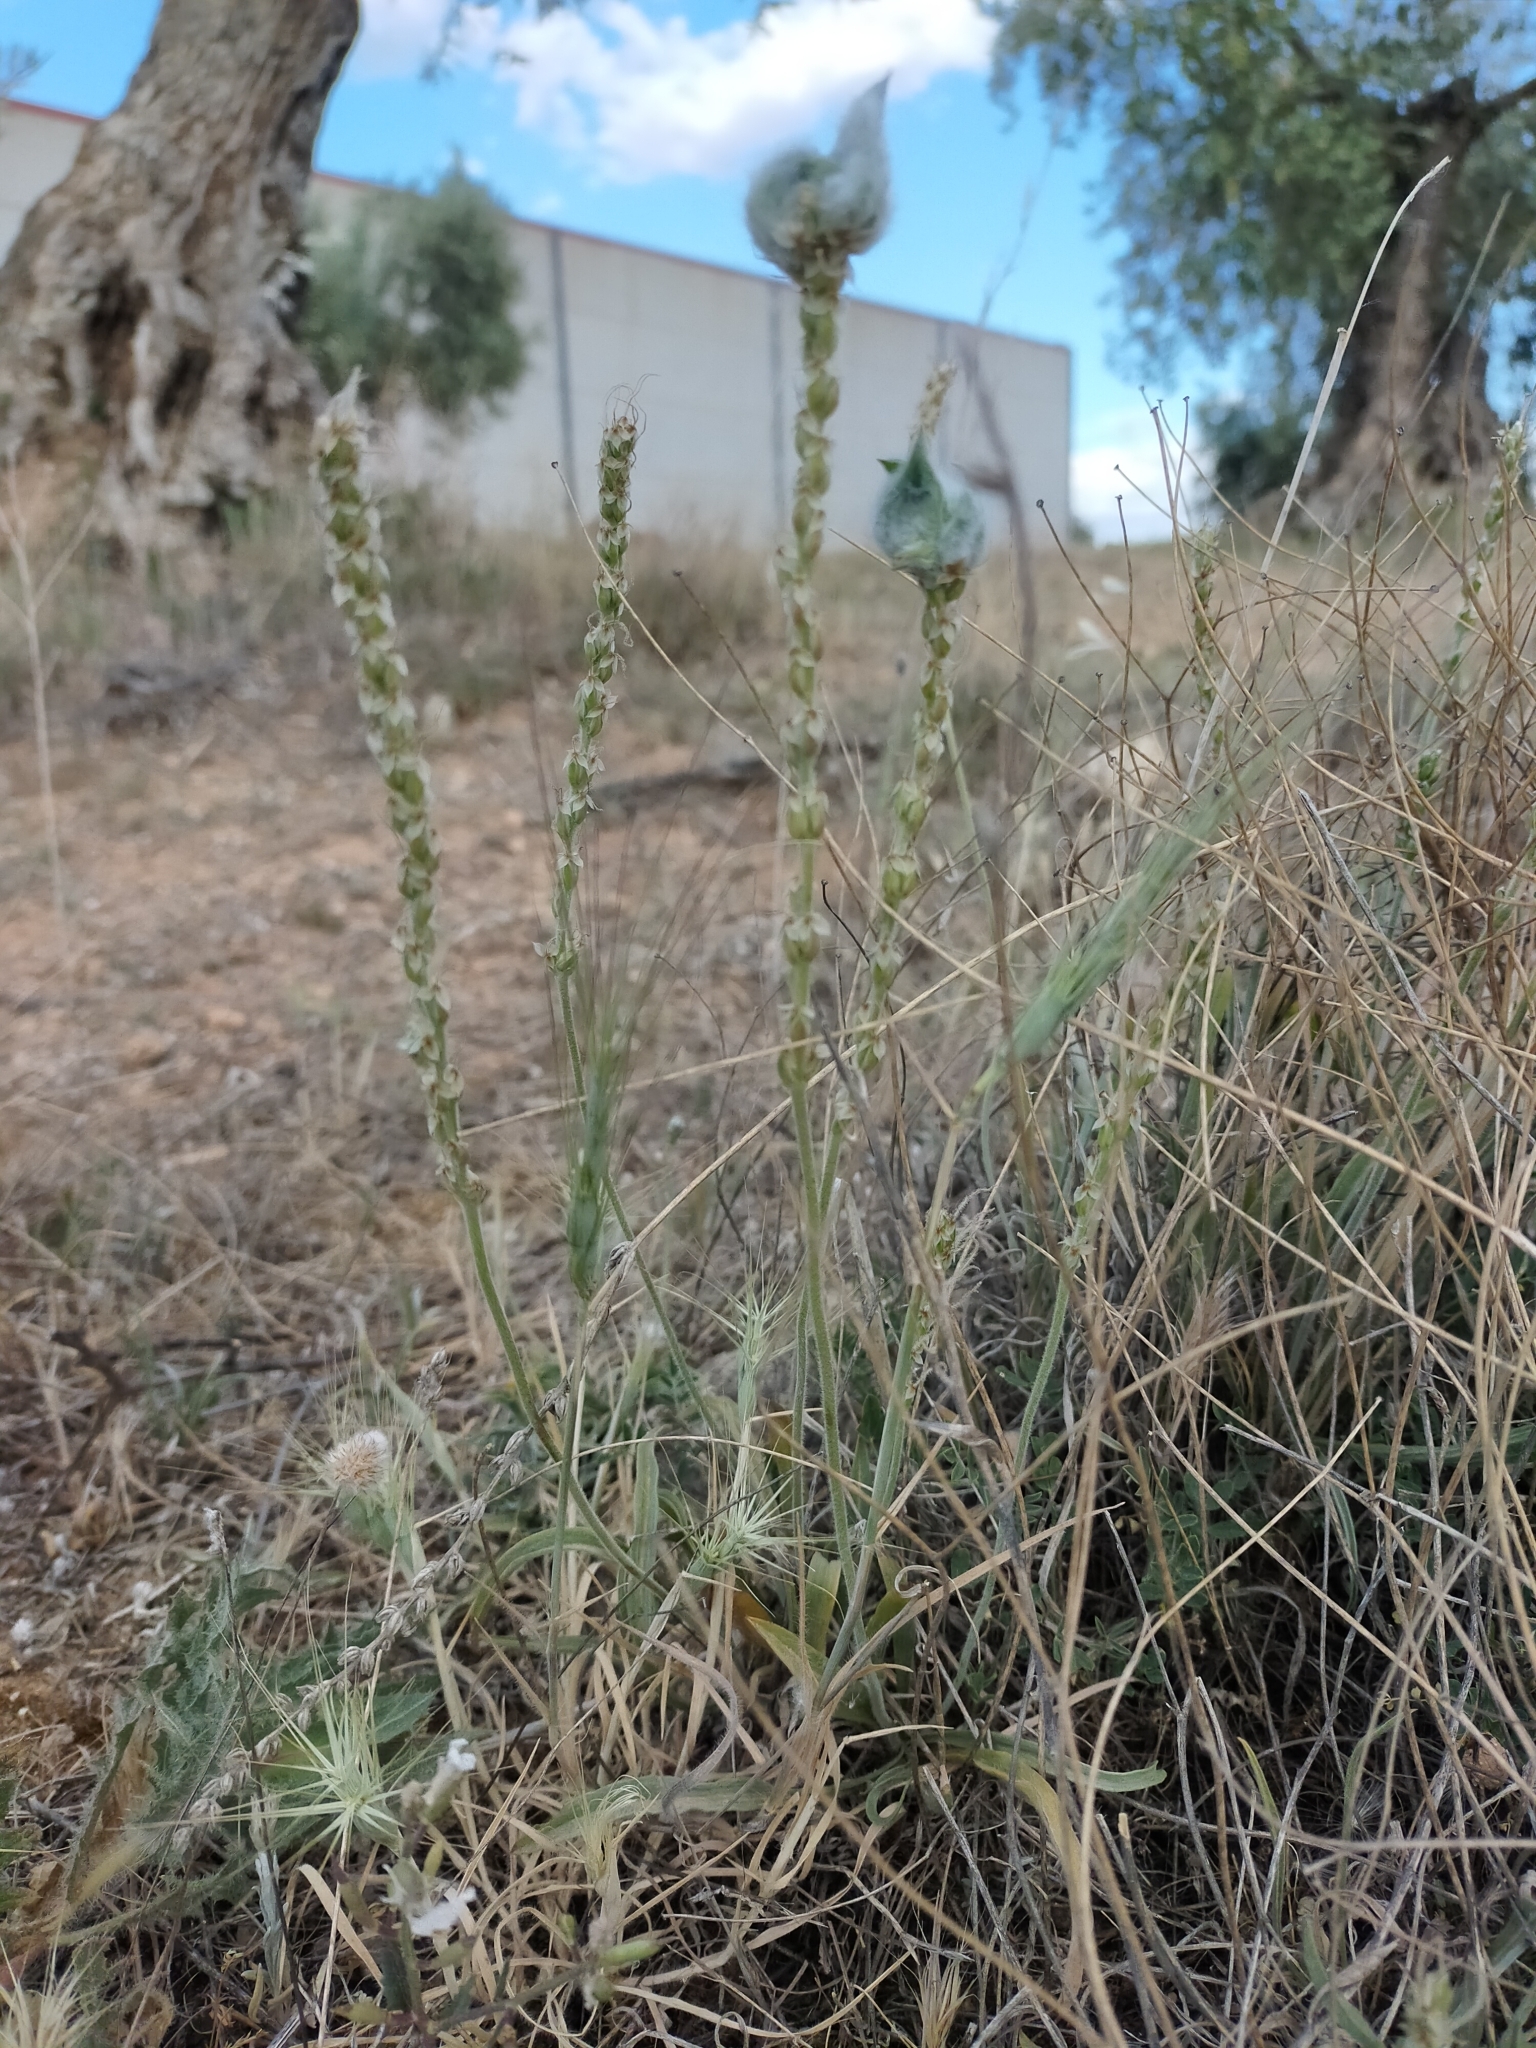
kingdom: Plantae
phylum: Tracheophyta
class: Magnoliopsida
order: Lamiales
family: Plantaginaceae
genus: Plantago
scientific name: Plantago albicans
